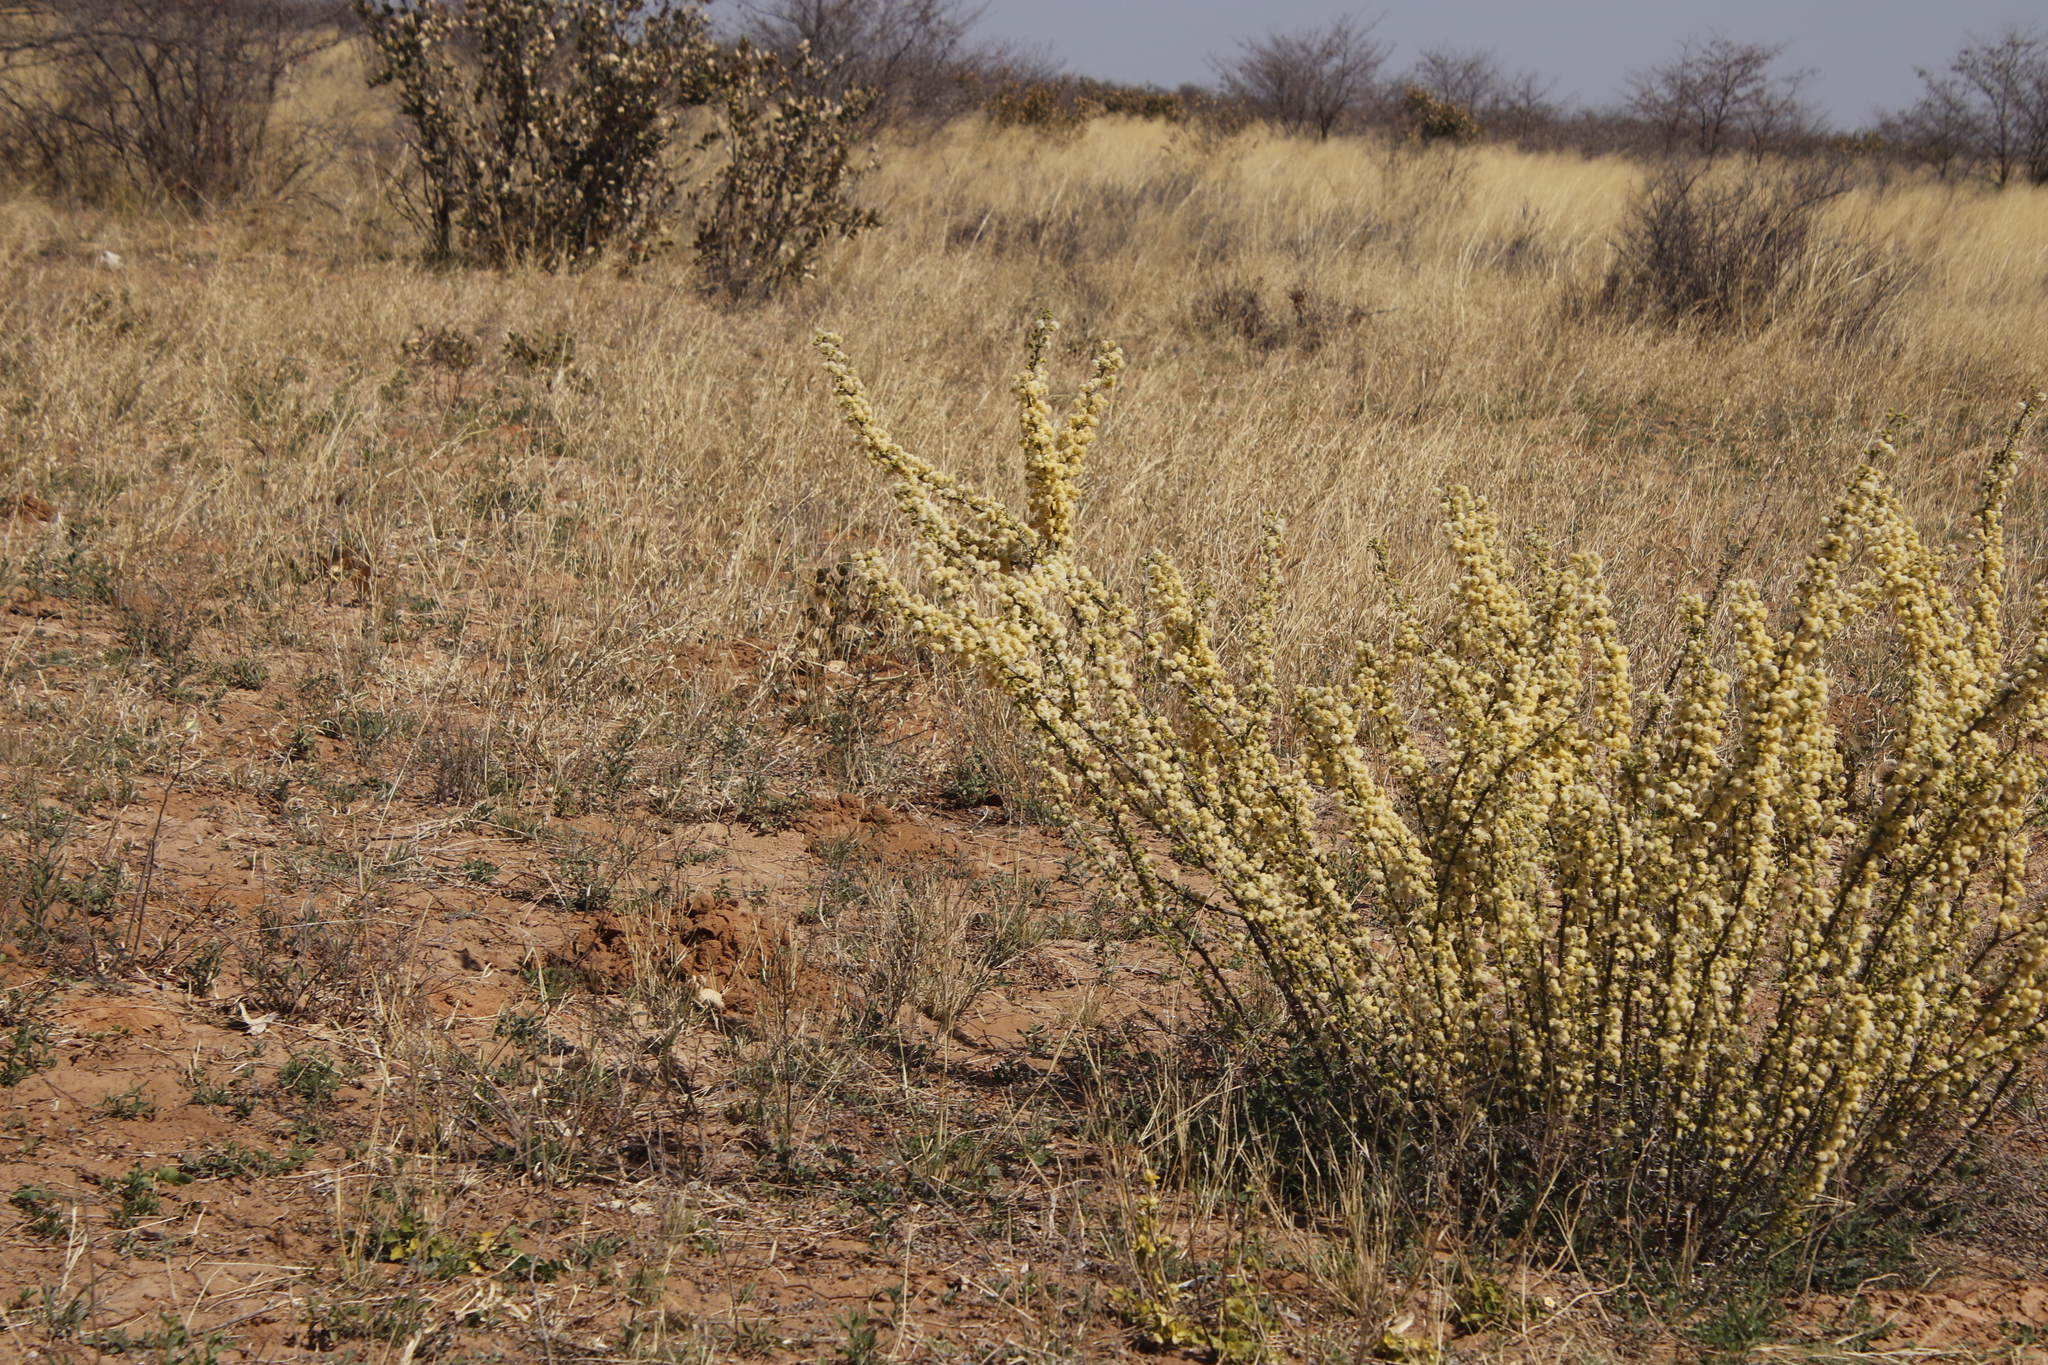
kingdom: Plantae
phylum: Tracheophyta
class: Magnoliopsida
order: Fabales
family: Fabaceae
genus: Vachellia
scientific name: Vachellia hebeclada
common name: Candle thorn
